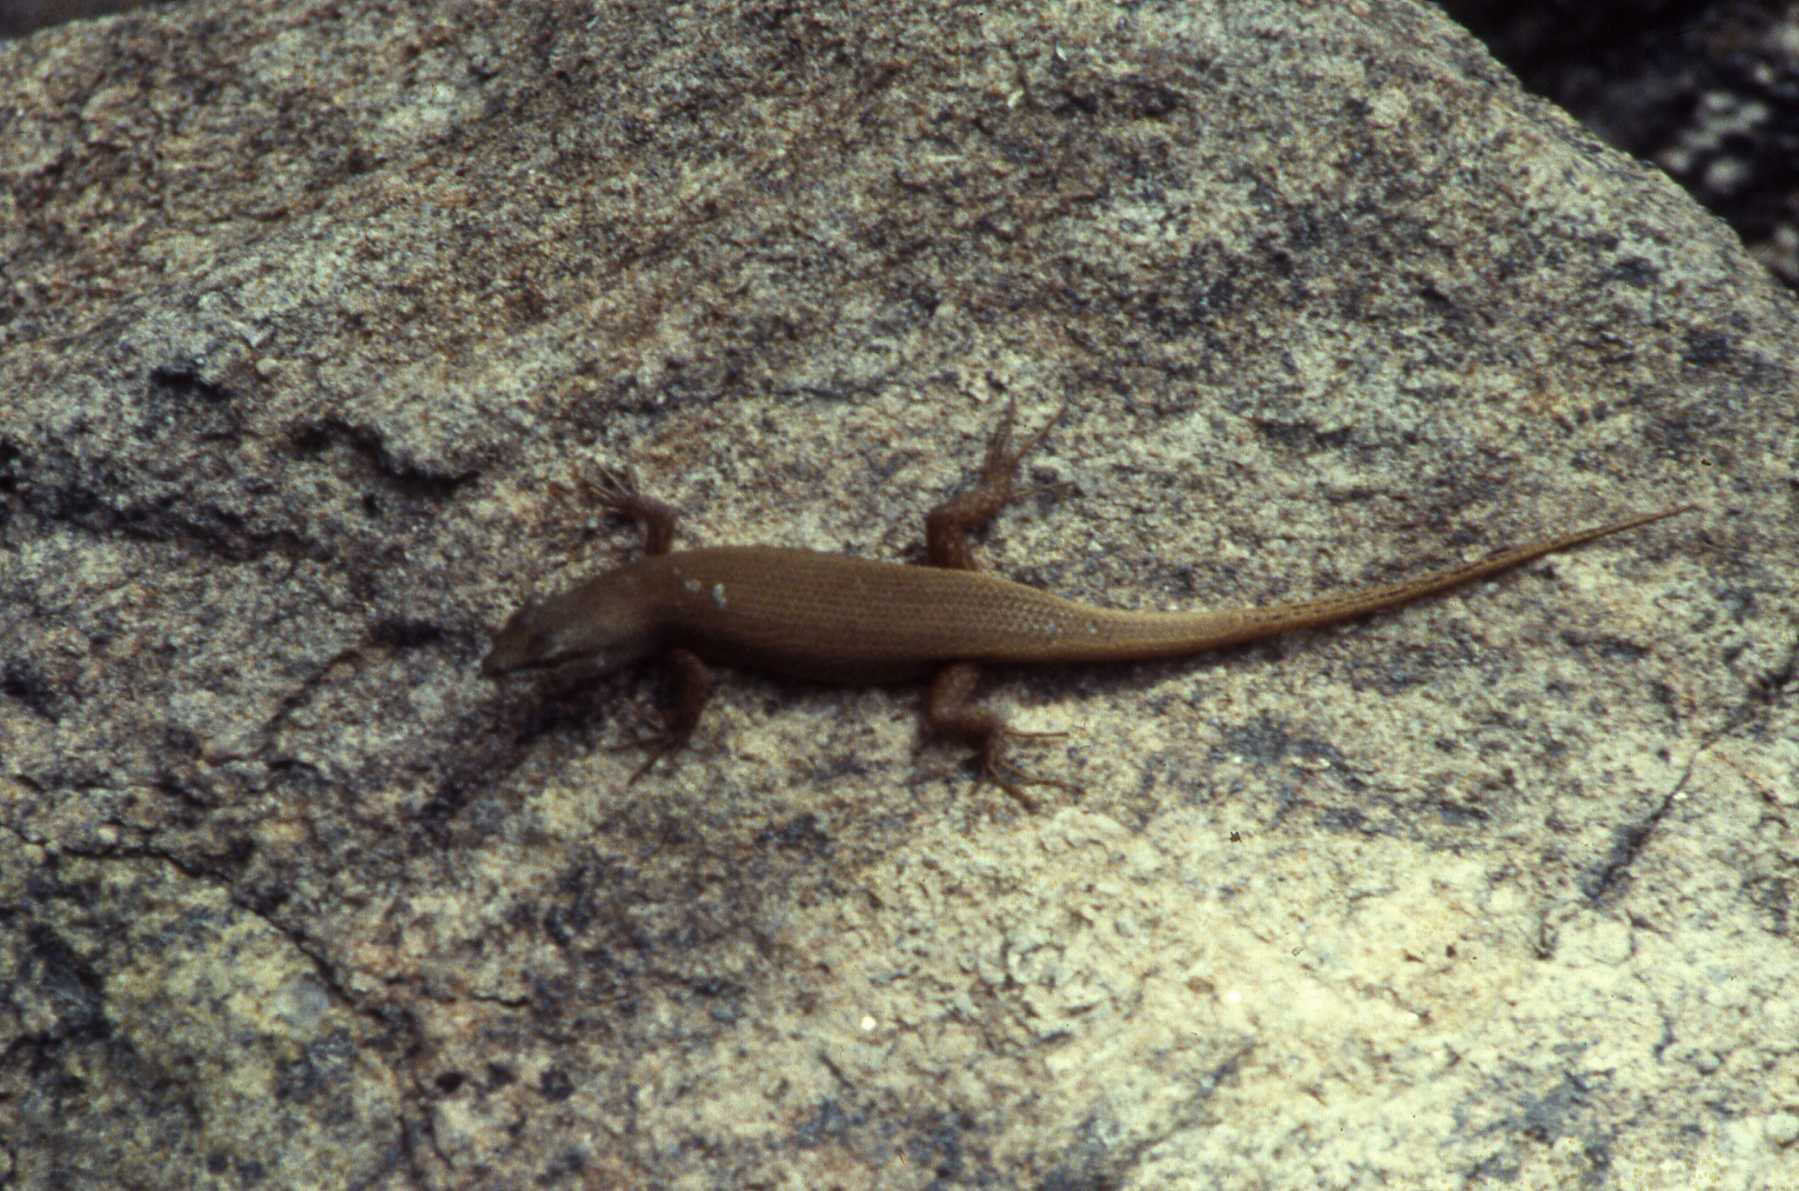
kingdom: Animalia
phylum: Chordata
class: Squamata
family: Scincidae
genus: Trachylepis
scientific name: Trachylepis lacertiformis
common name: Bronze rock skink
